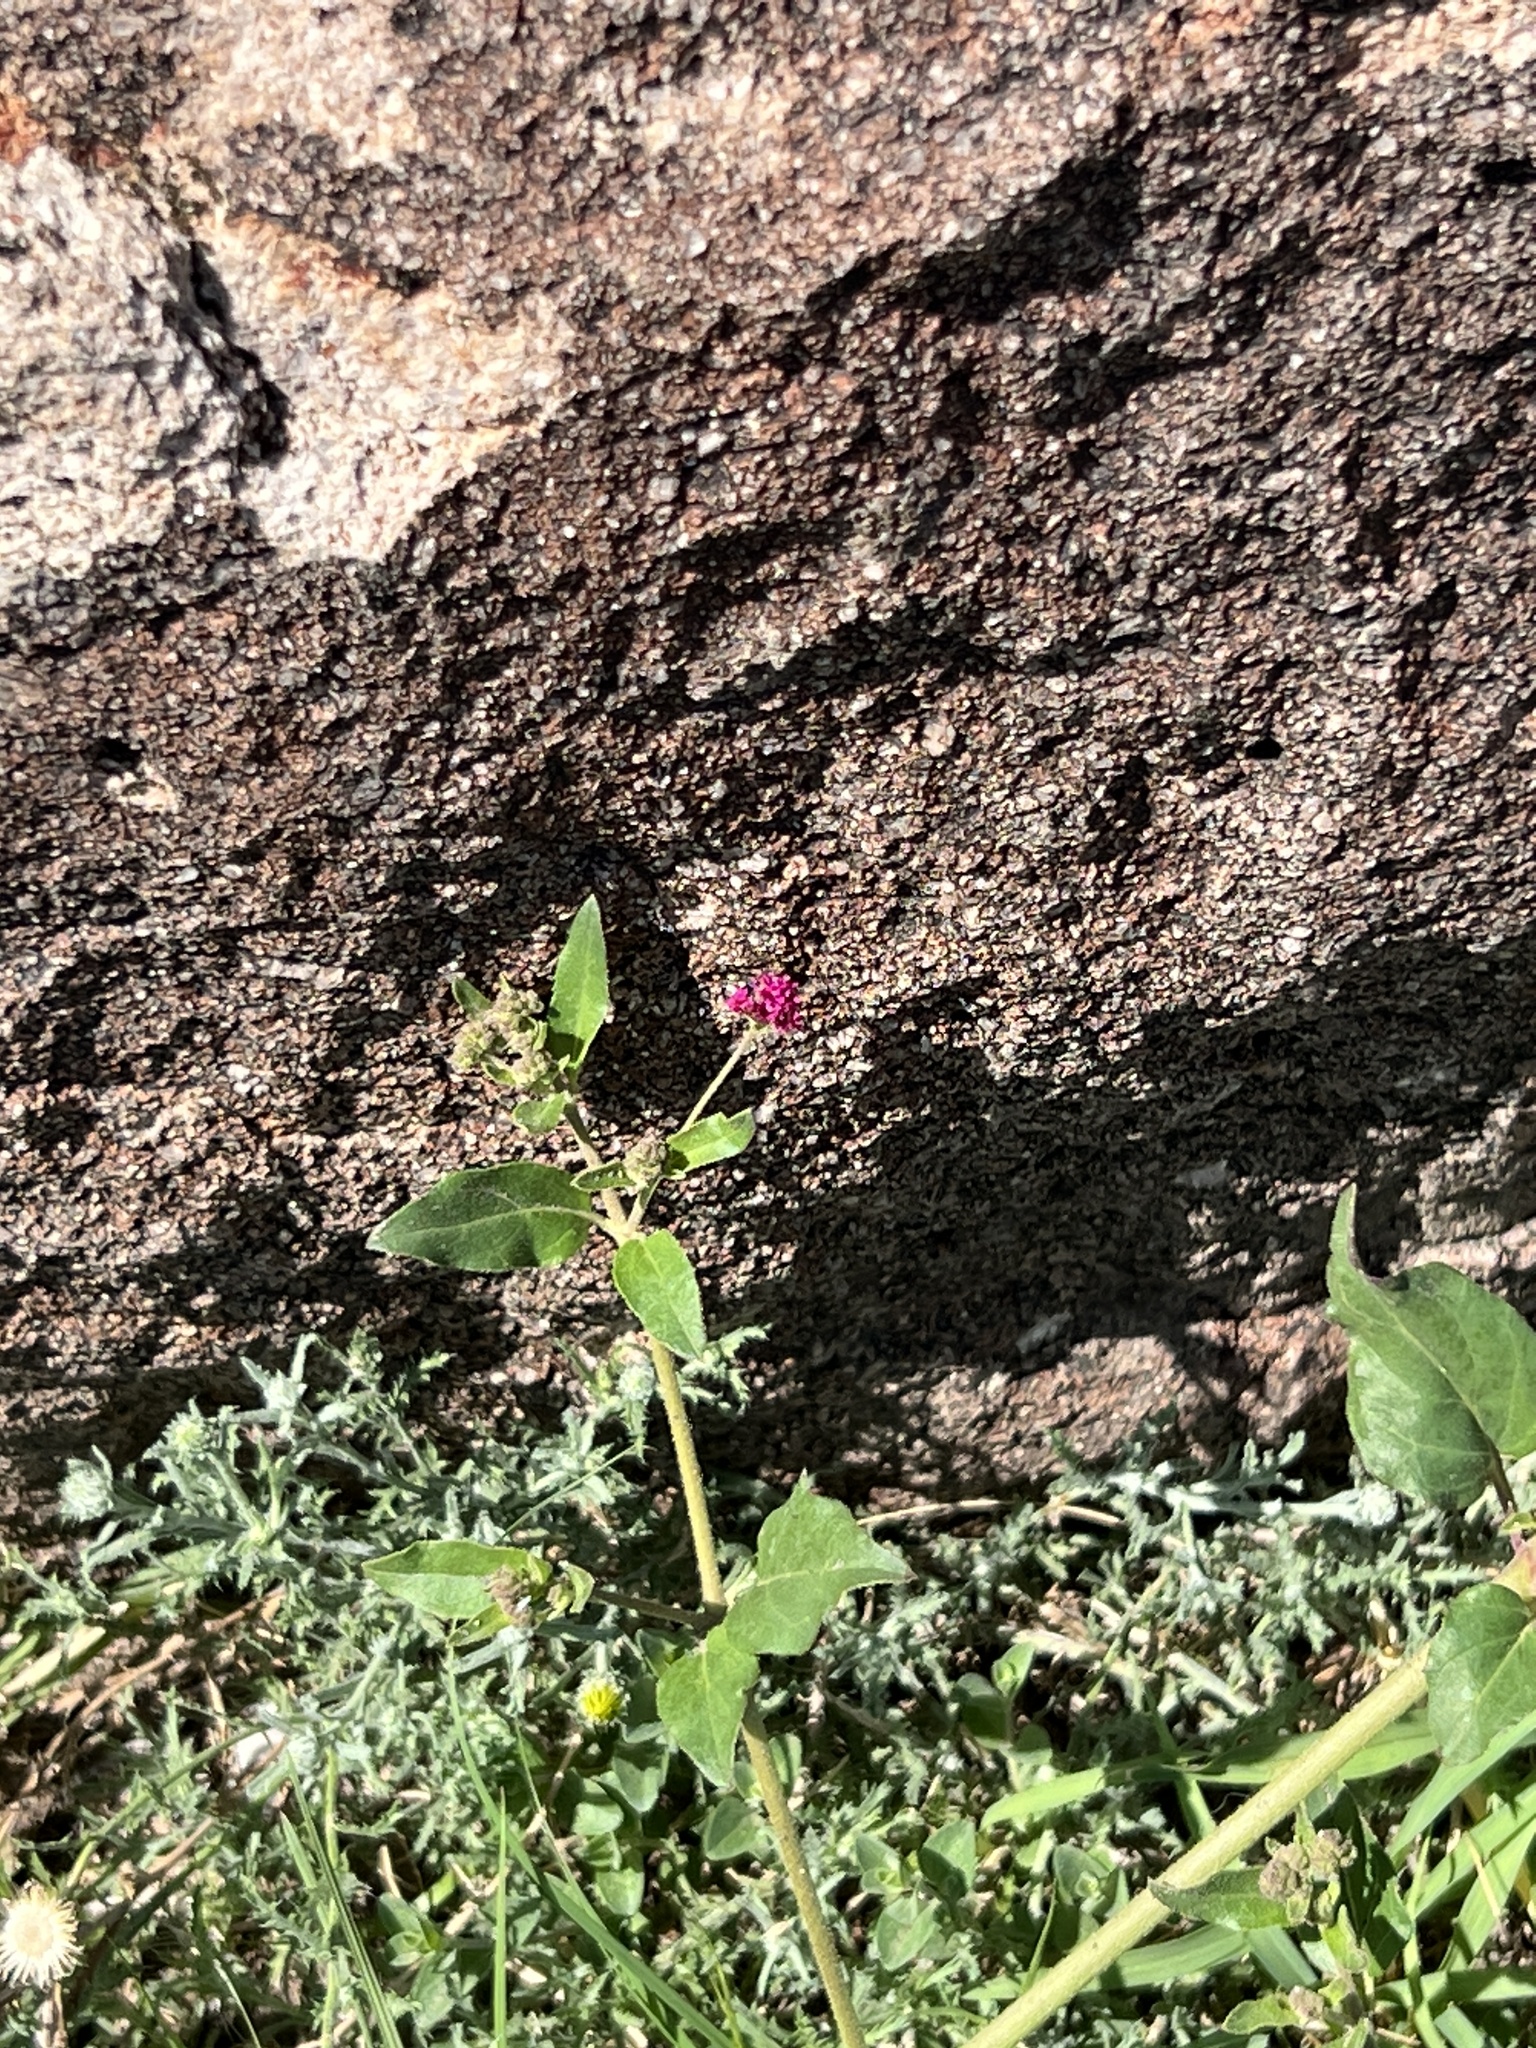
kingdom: Plantae
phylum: Tracheophyta
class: Magnoliopsida
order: Caryophyllales
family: Nyctaginaceae
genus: Boerhavia
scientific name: Boerhavia coccinea
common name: Scarlet spiderling
